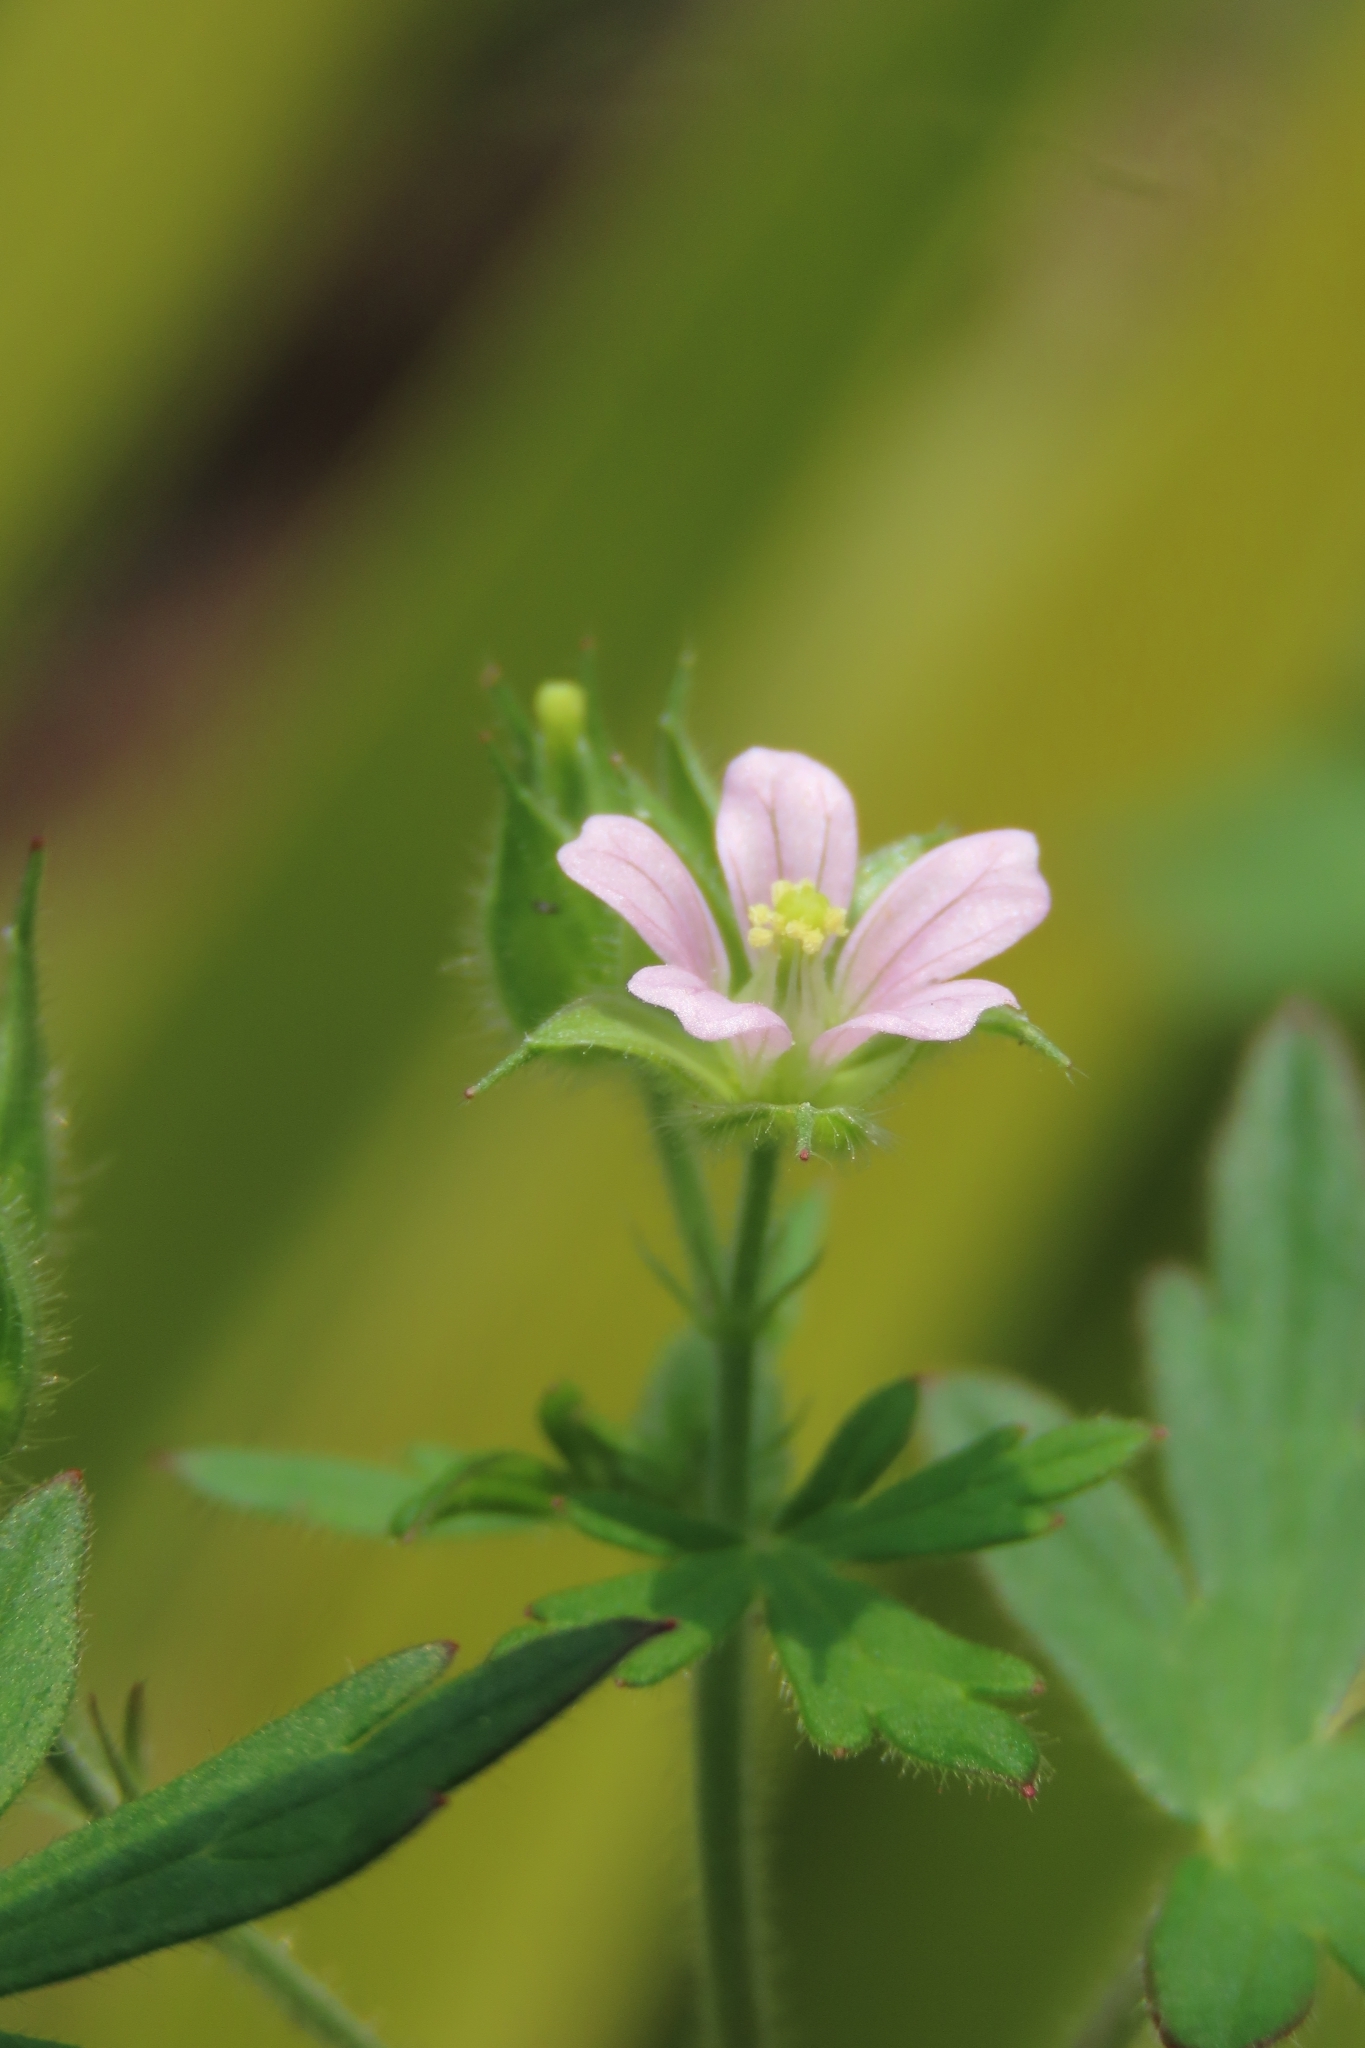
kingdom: Plantae
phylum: Tracheophyta
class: Magnoliopsida
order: Geraniales
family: Geraniaceae
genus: Geranium
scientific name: Geranium carolinianum
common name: Carolina crane's-bill
